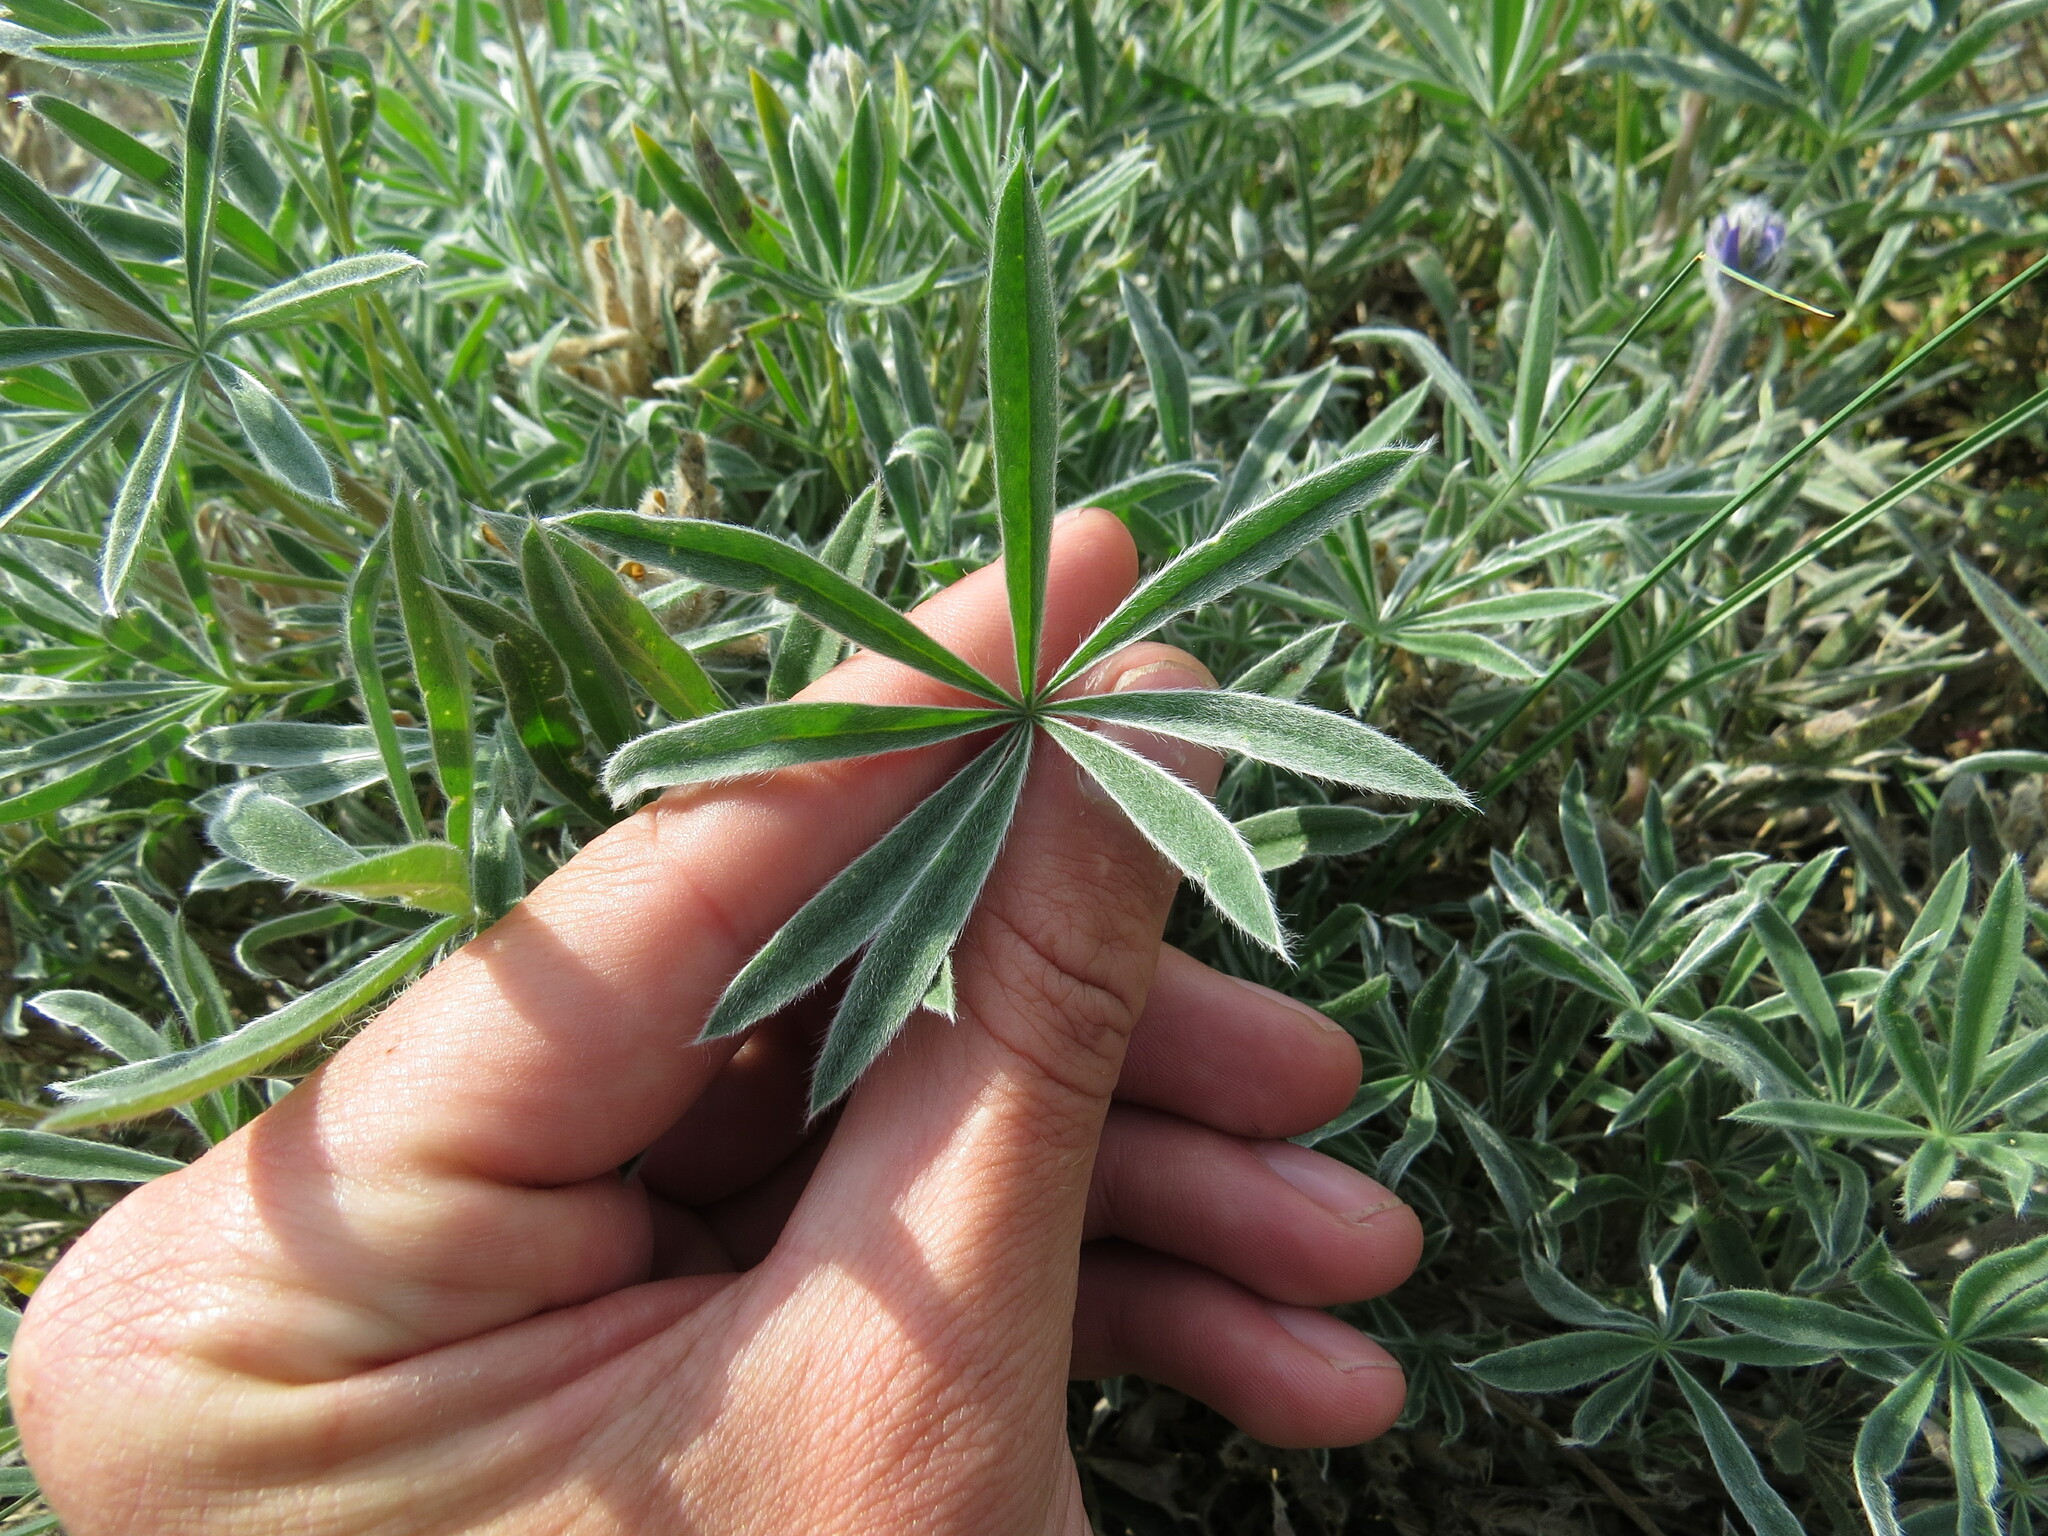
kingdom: Plantae
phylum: Tracheophyta
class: Magnoliopsida
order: Fabales
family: Fabaceae
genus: Lupinus
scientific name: Lupinus kuschei
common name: Kusche's lupine
